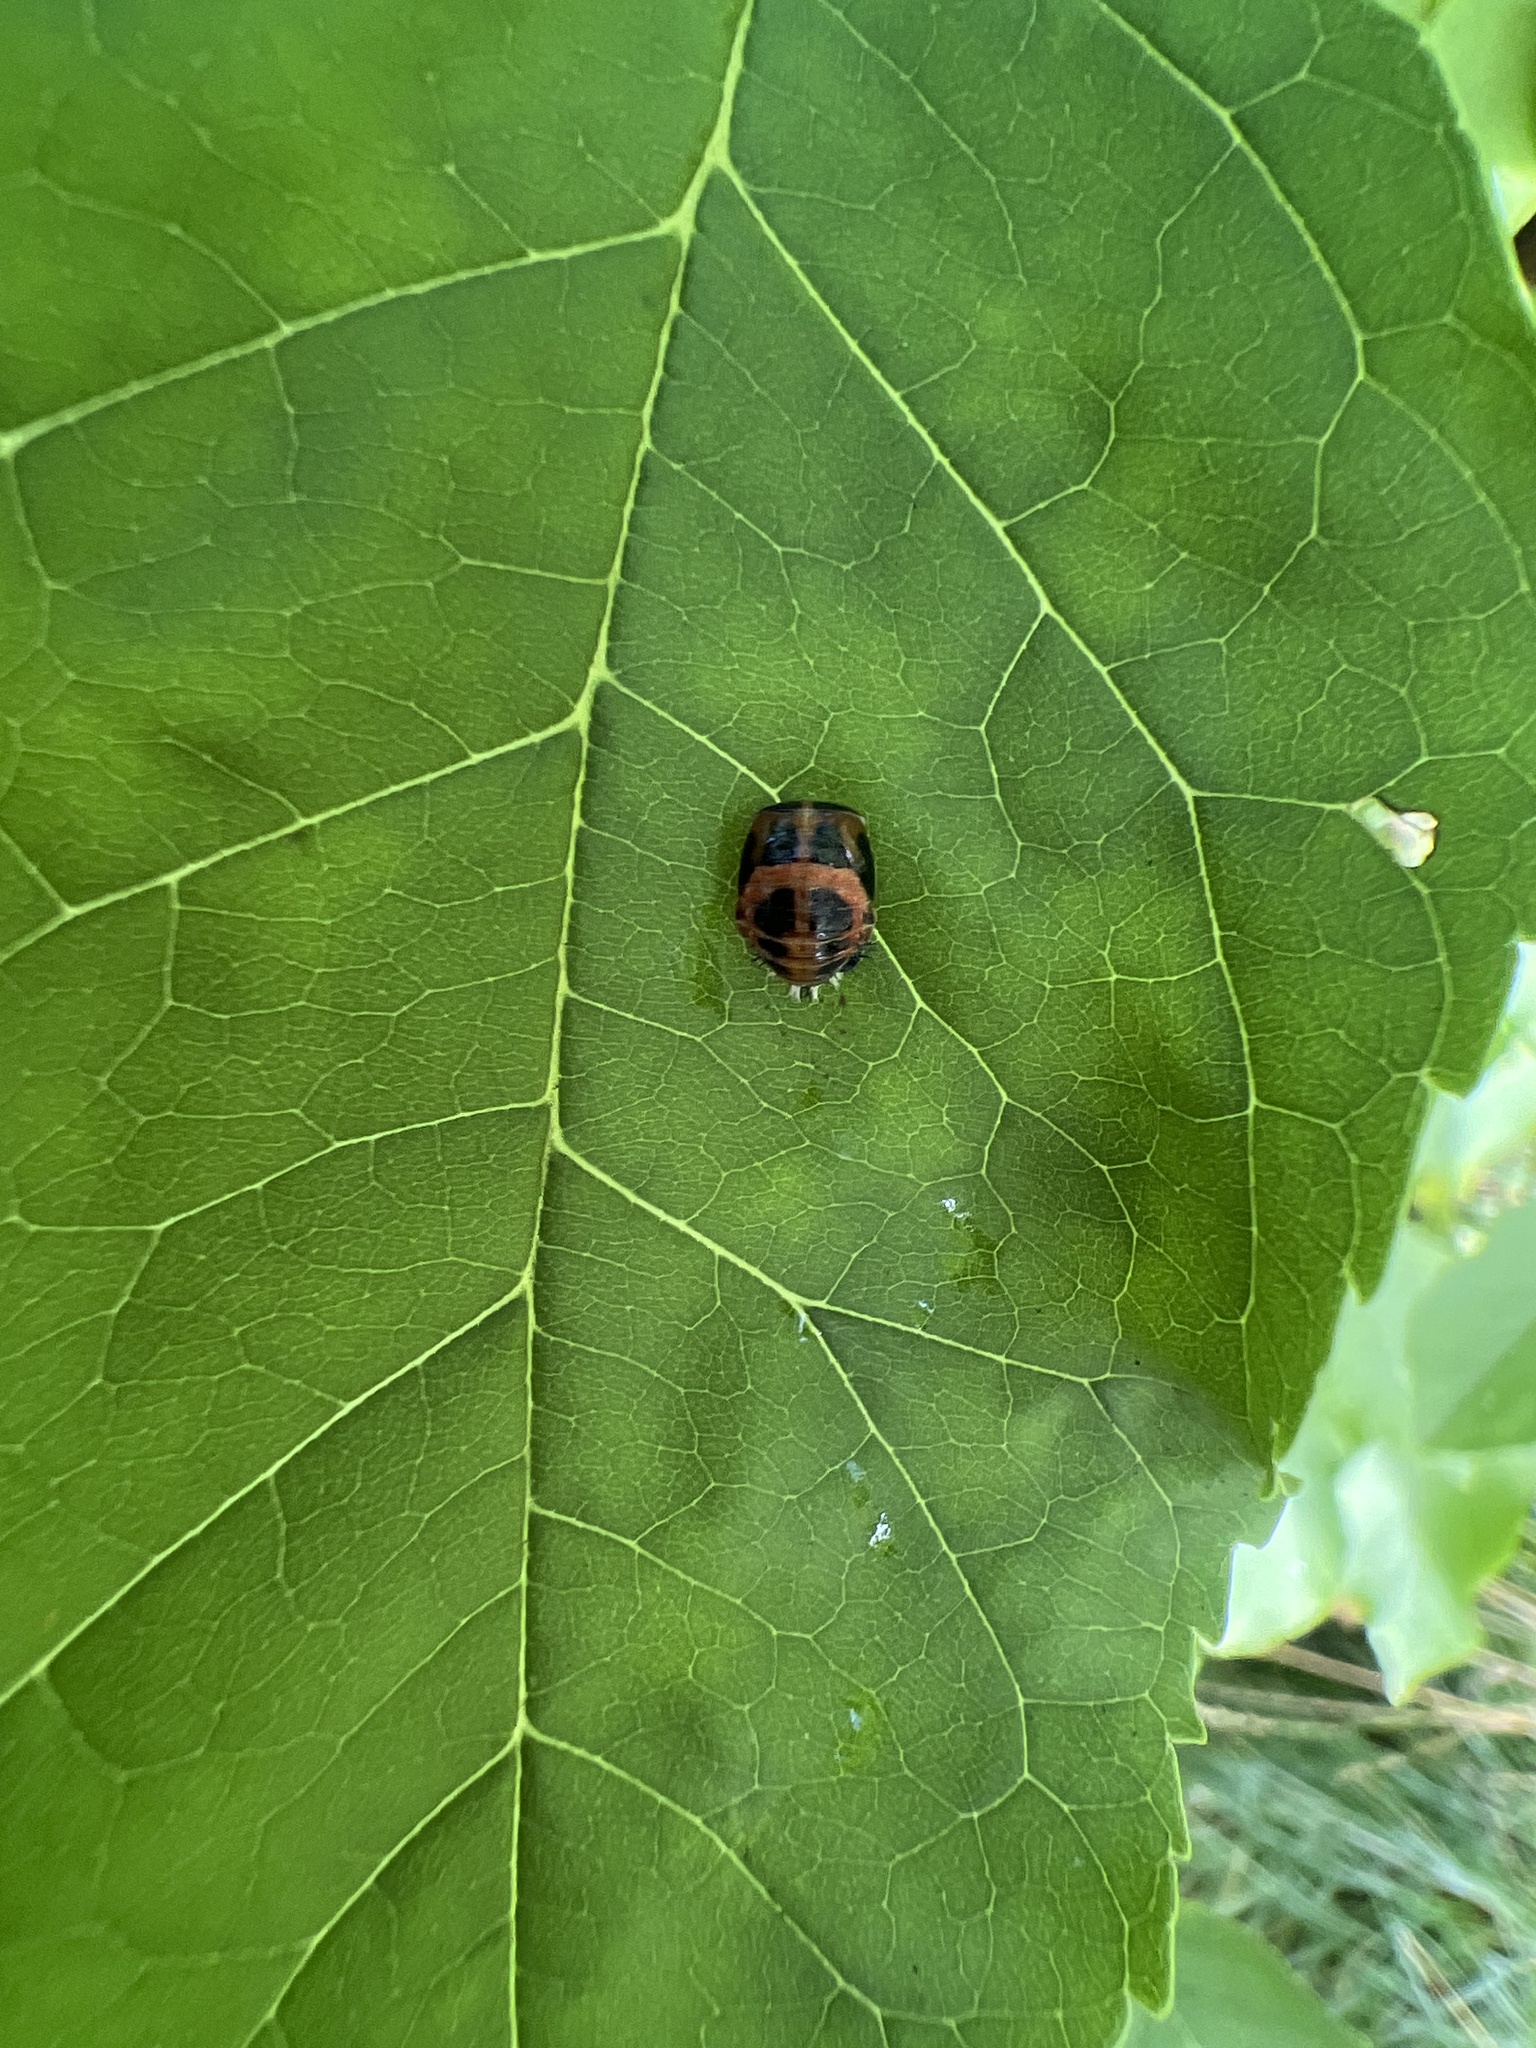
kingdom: Animalia
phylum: Arthropoda
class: Insecta
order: Coleoptera
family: Coccinellidae
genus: Harmonia
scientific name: Harmonia axyridis
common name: Harlequin ladybird
